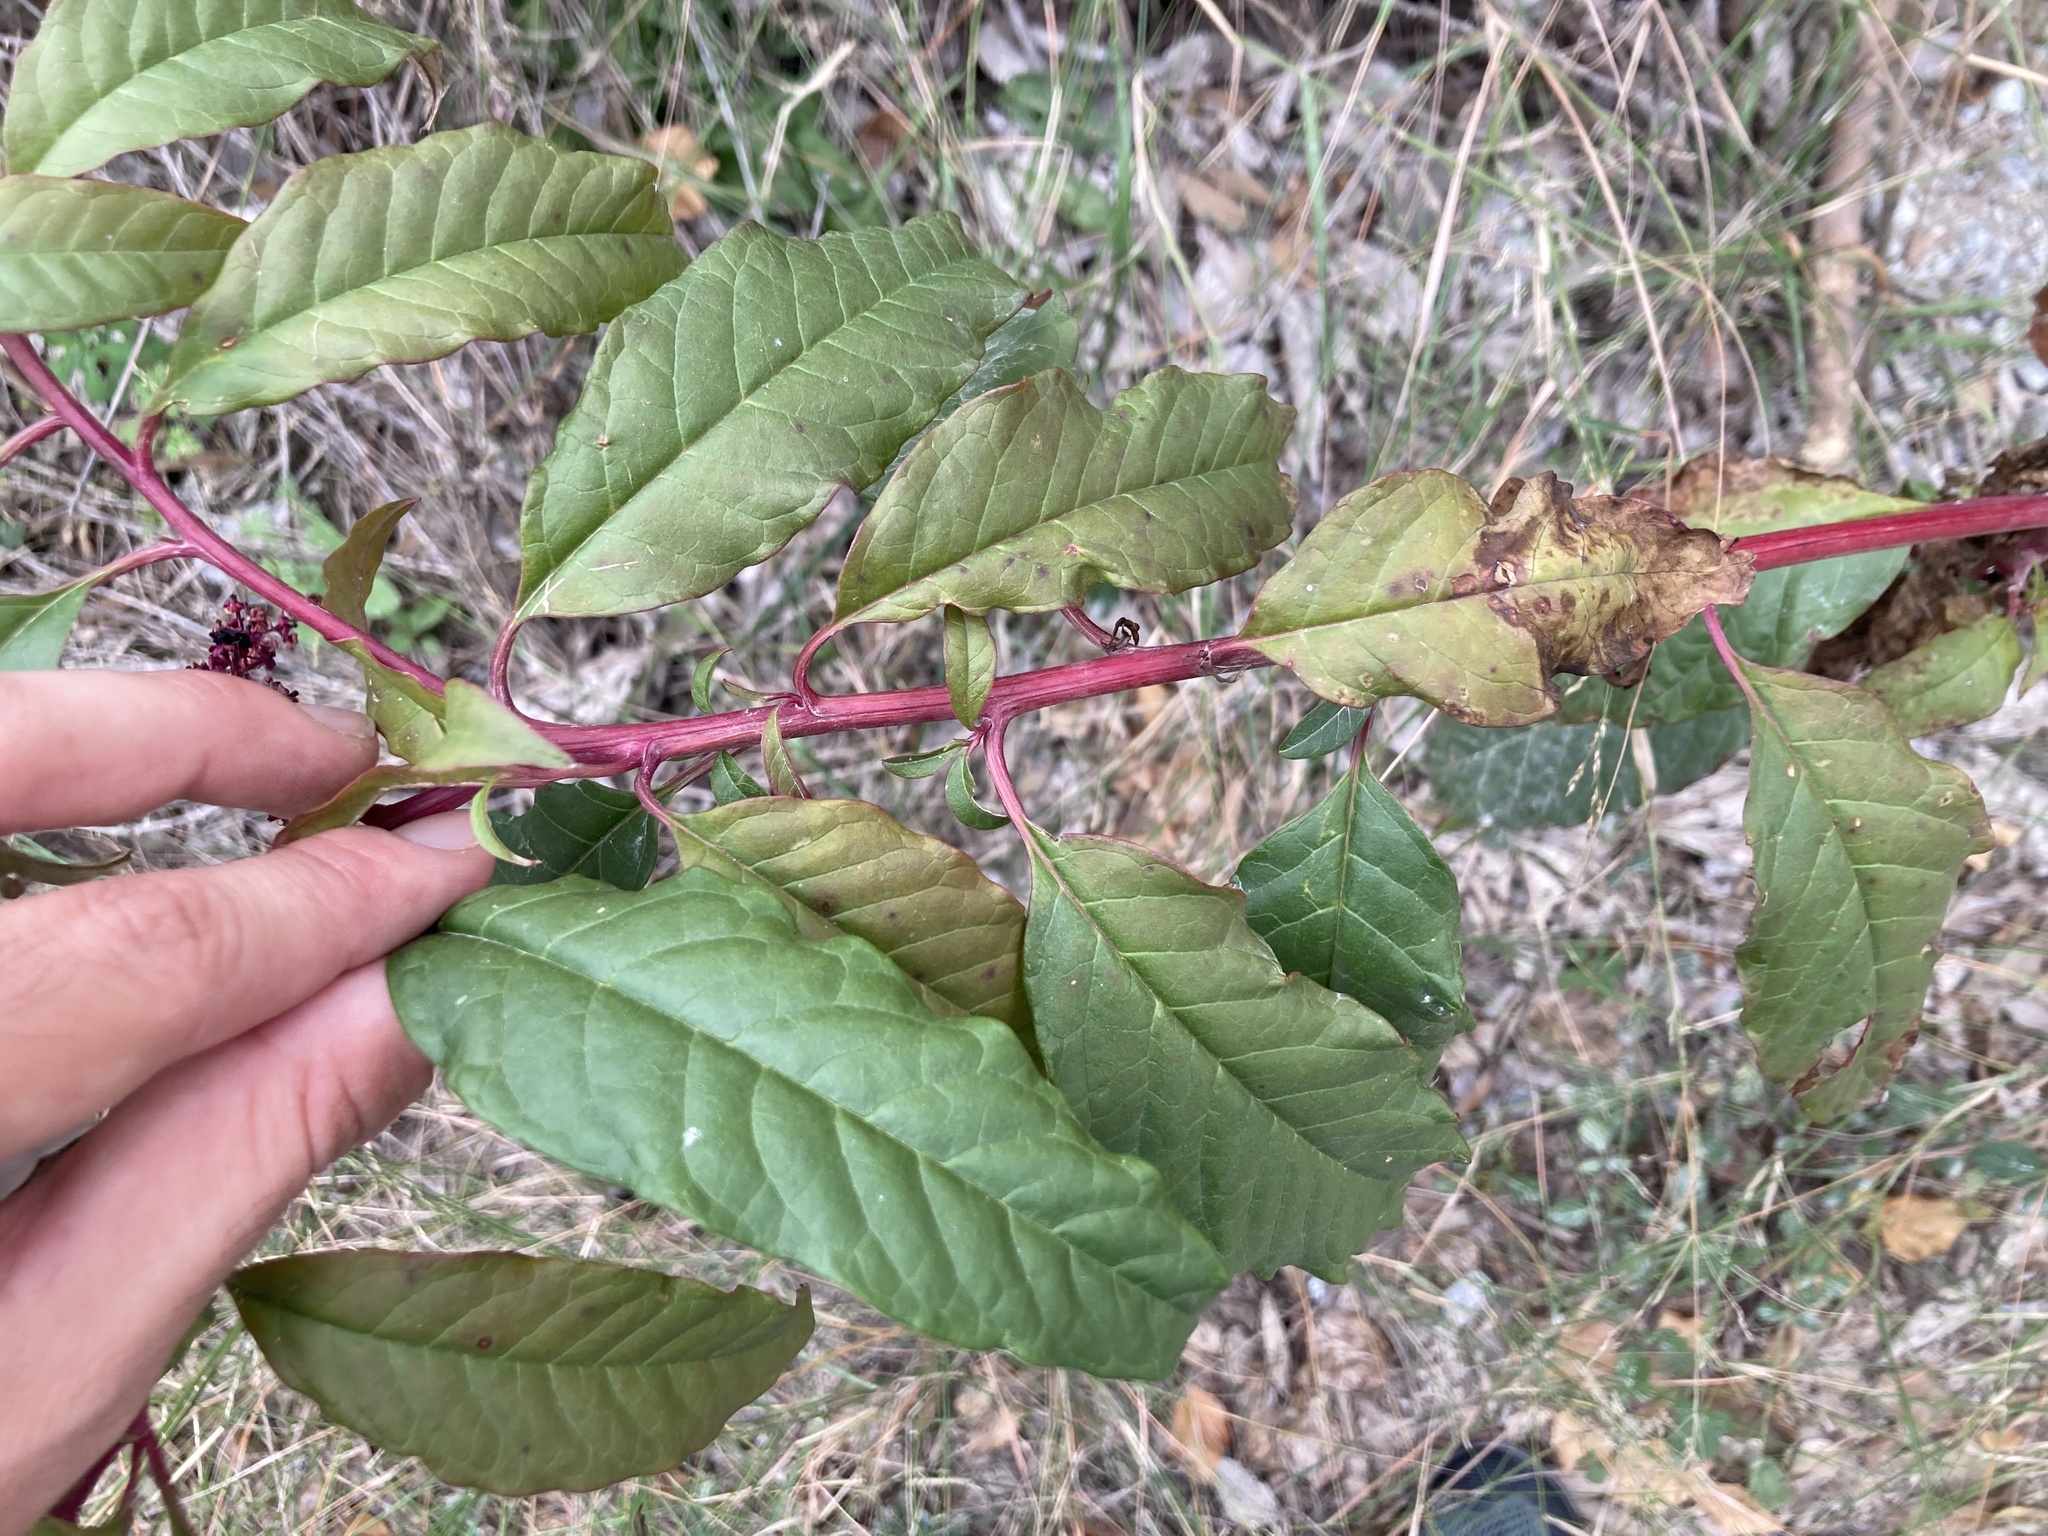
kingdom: Plantae
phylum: Tracheophyta
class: Magnoliopsida
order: Caryophyllales
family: Phytolaccaceae
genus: Phytolacca
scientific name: Phytolacca americana
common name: American pokeweed
